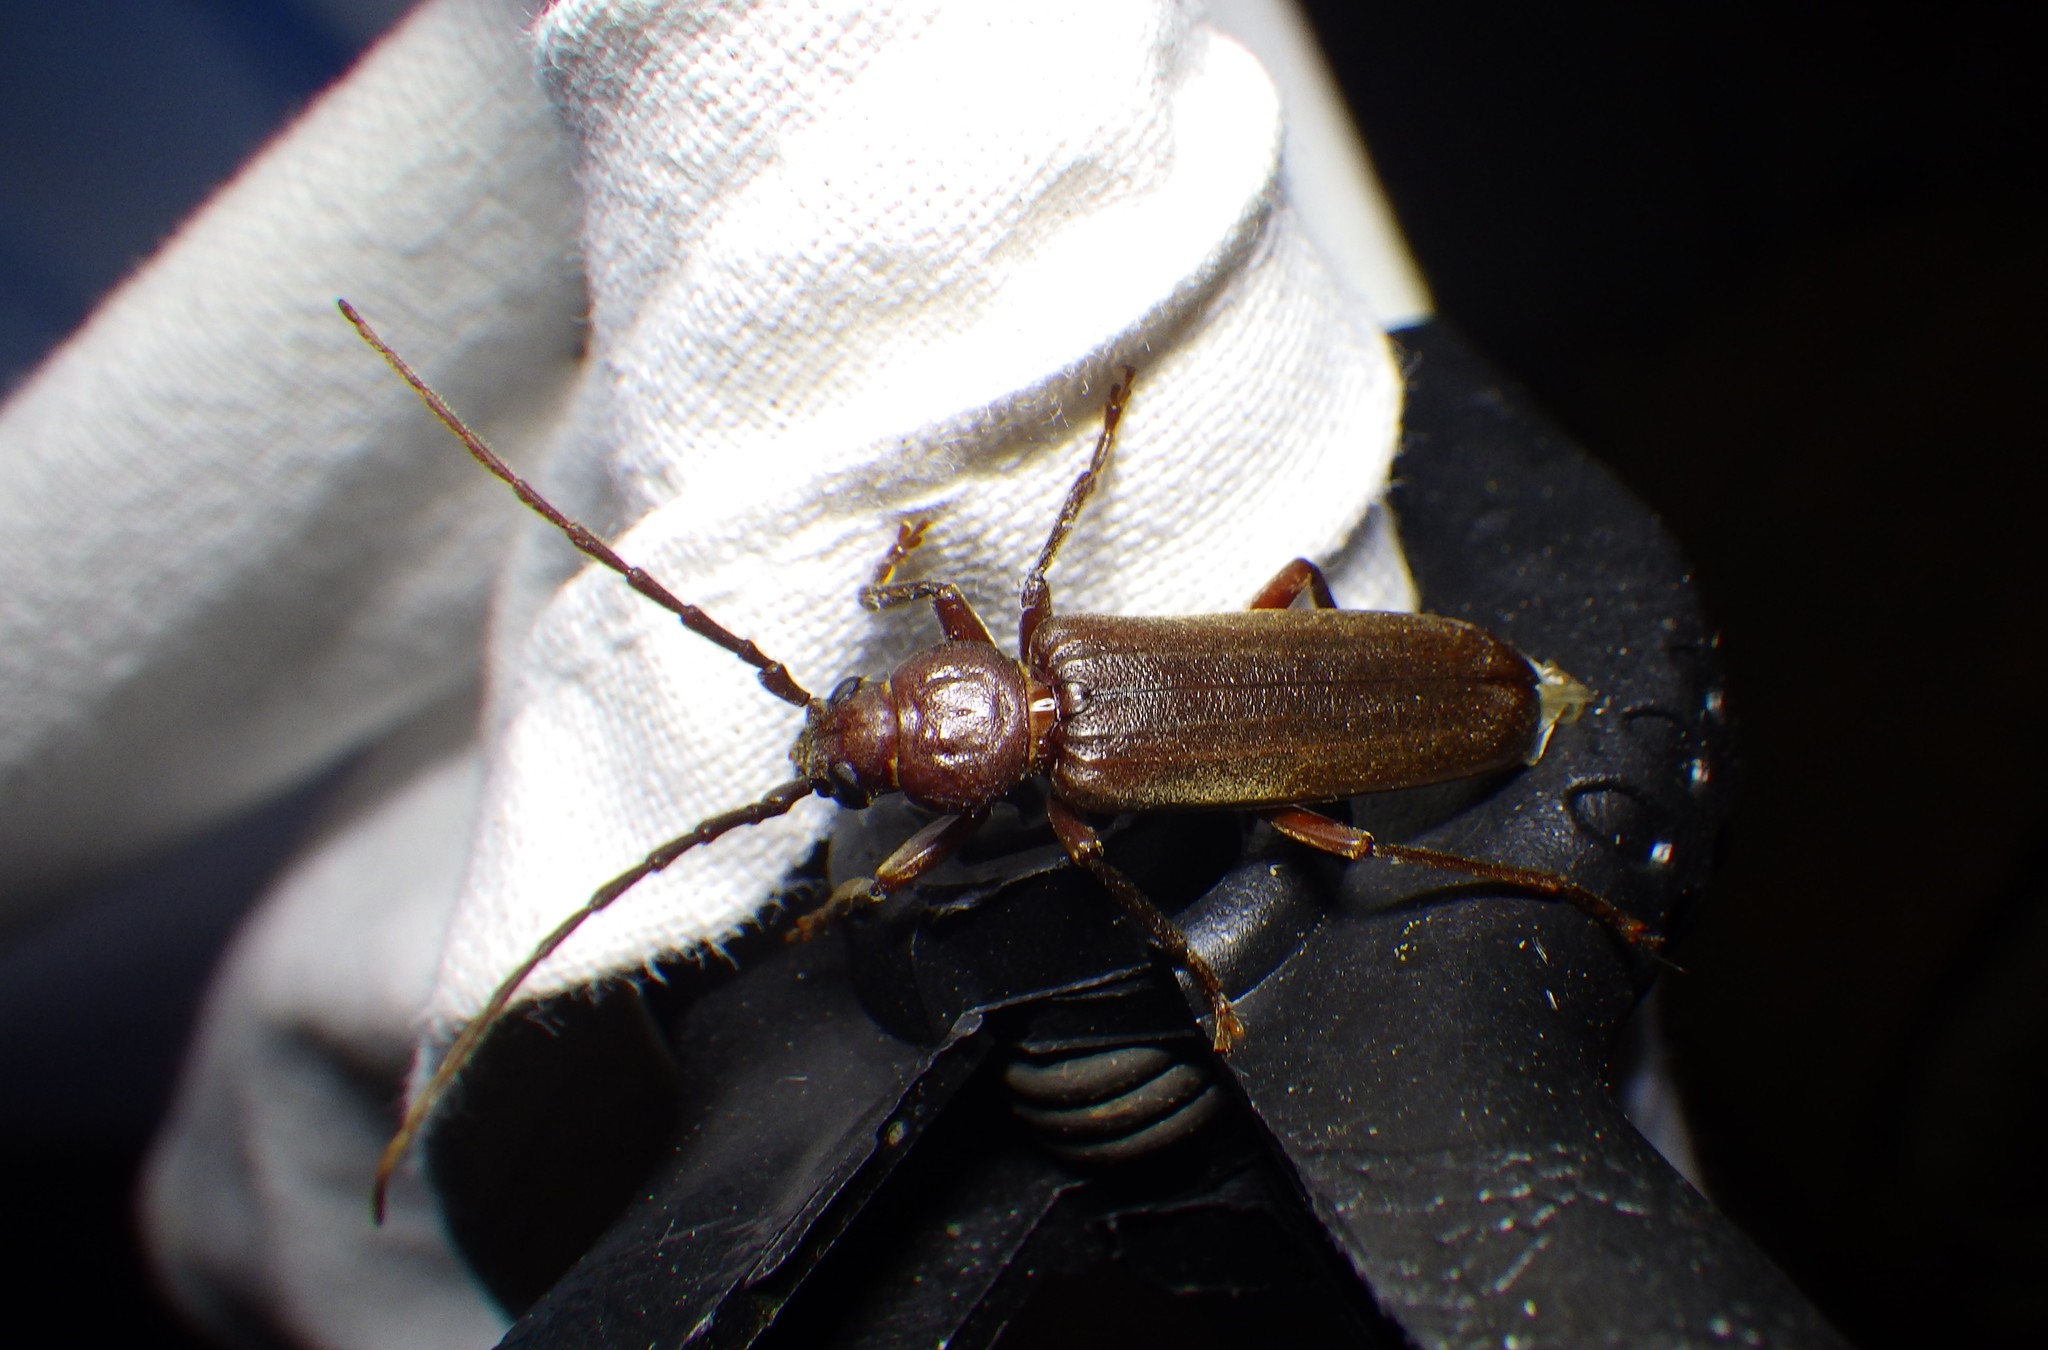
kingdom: Animalia
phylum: Arthropoda
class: Insecta
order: Coleoptera
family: Cerambycidae
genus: Arhopalus
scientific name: Arhopalus rusticus
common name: Rust pine borer
